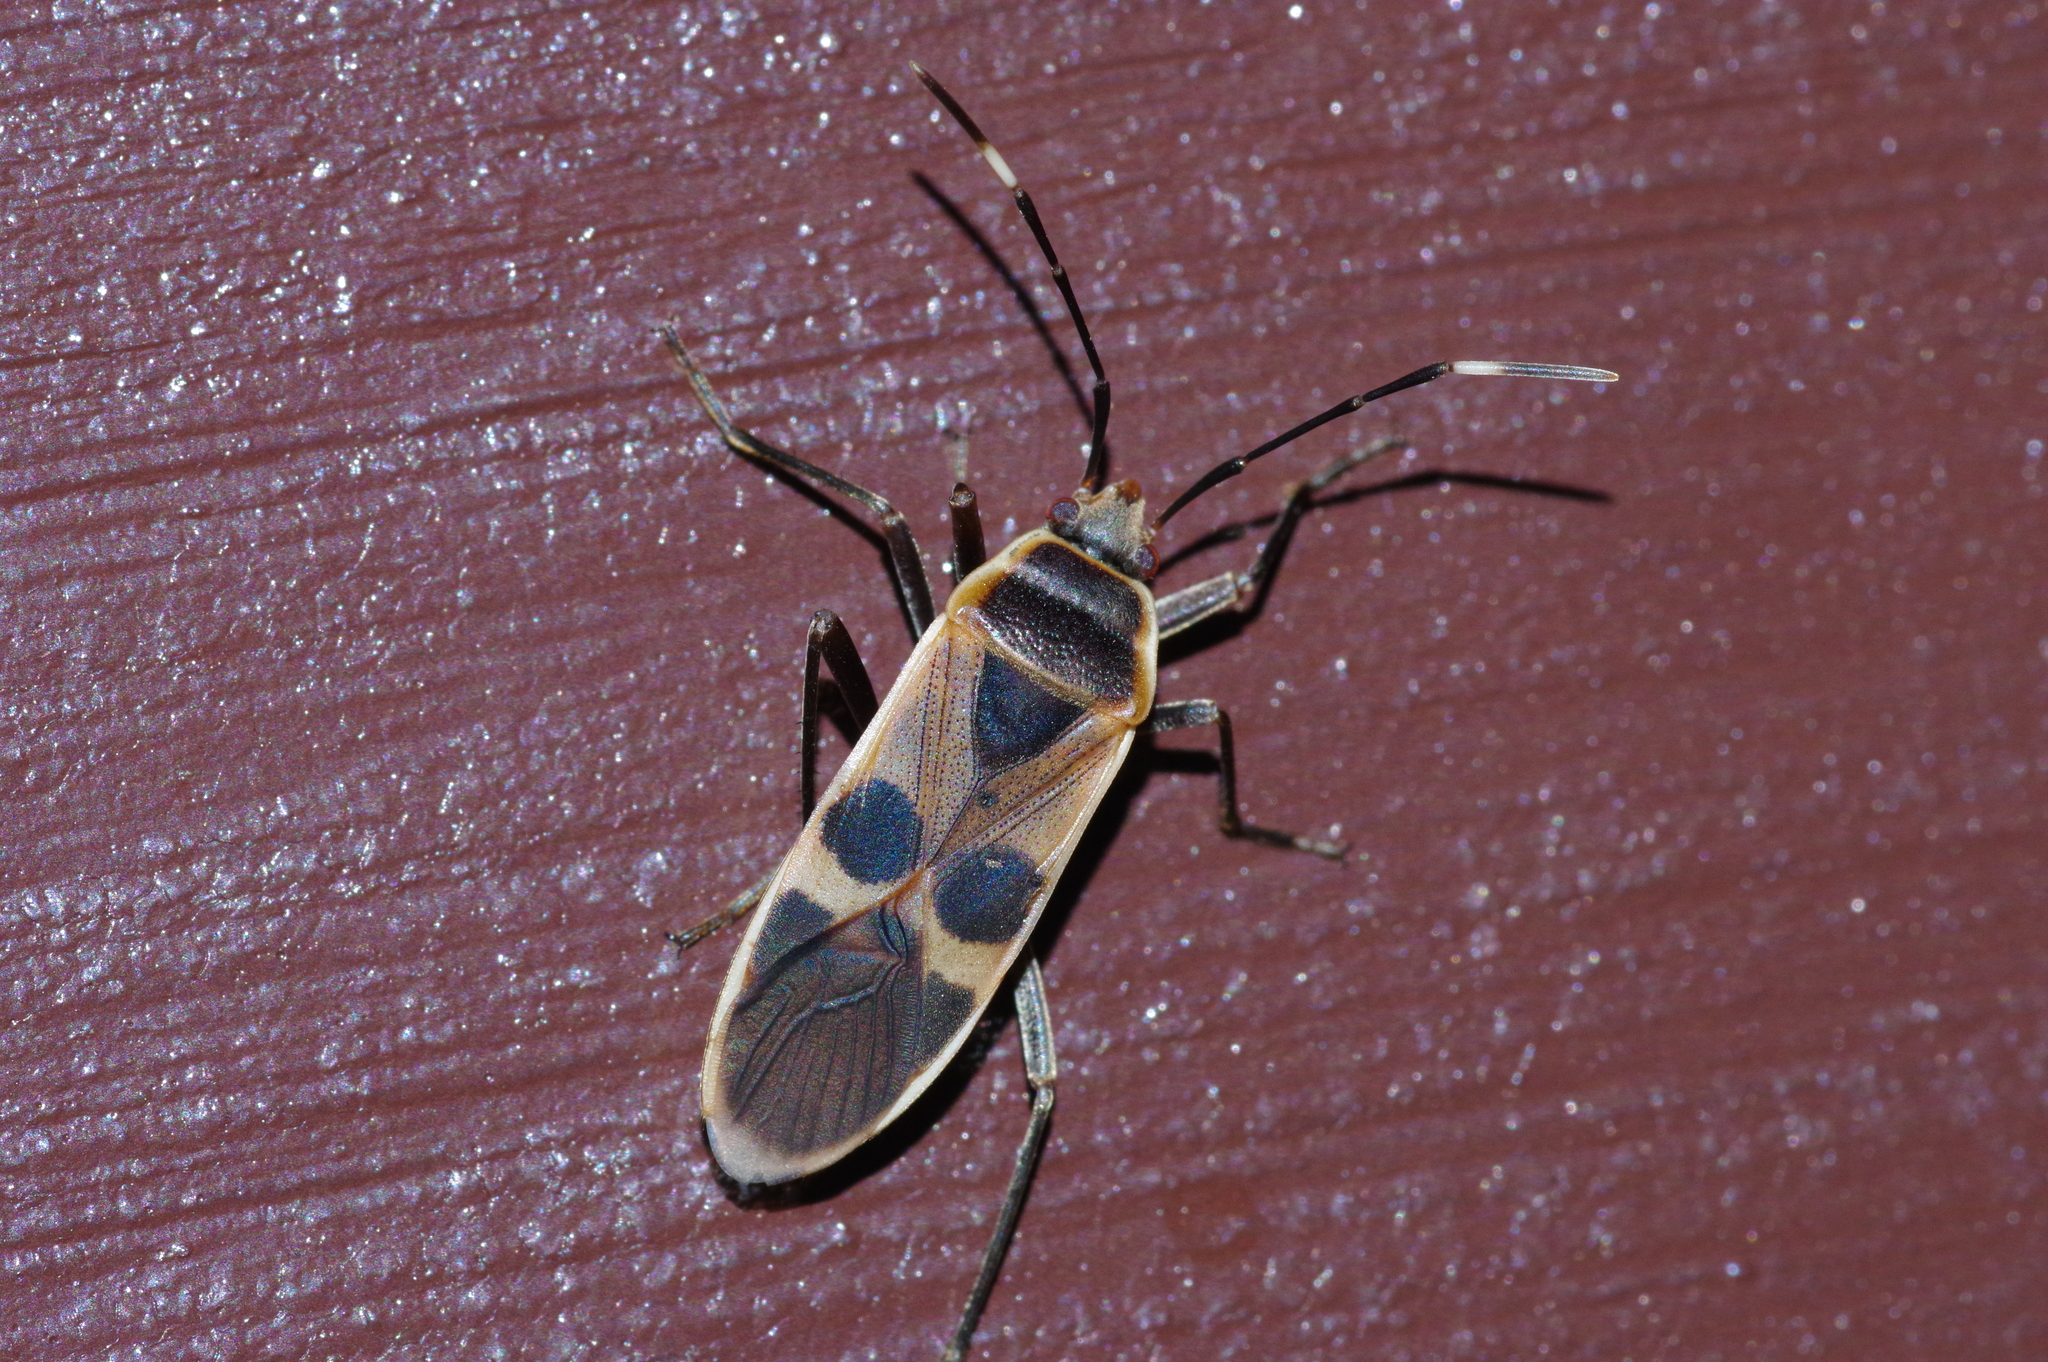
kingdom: Animalia
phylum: Arthropoda
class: Insecta
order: Hemiptera
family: Largidae
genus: Physopelta
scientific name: Physopelta gutta
